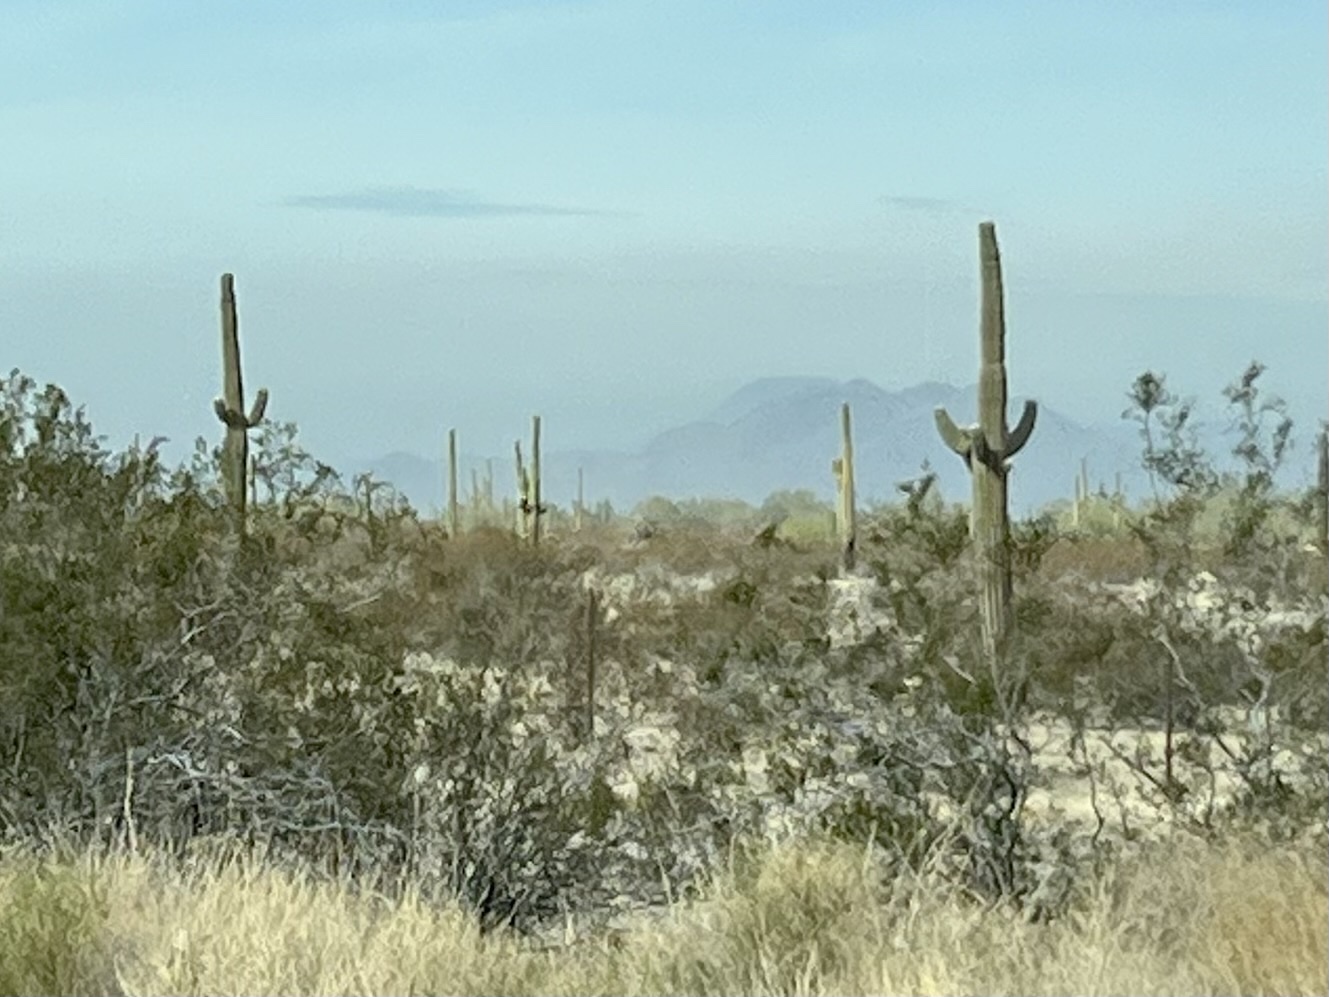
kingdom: Plantae
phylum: Tracheophyta
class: Magnoliopsida
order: Caryophyllales
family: Cactaceae
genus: Carnegiea
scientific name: Carnegiea gigantea
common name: Saguaro
